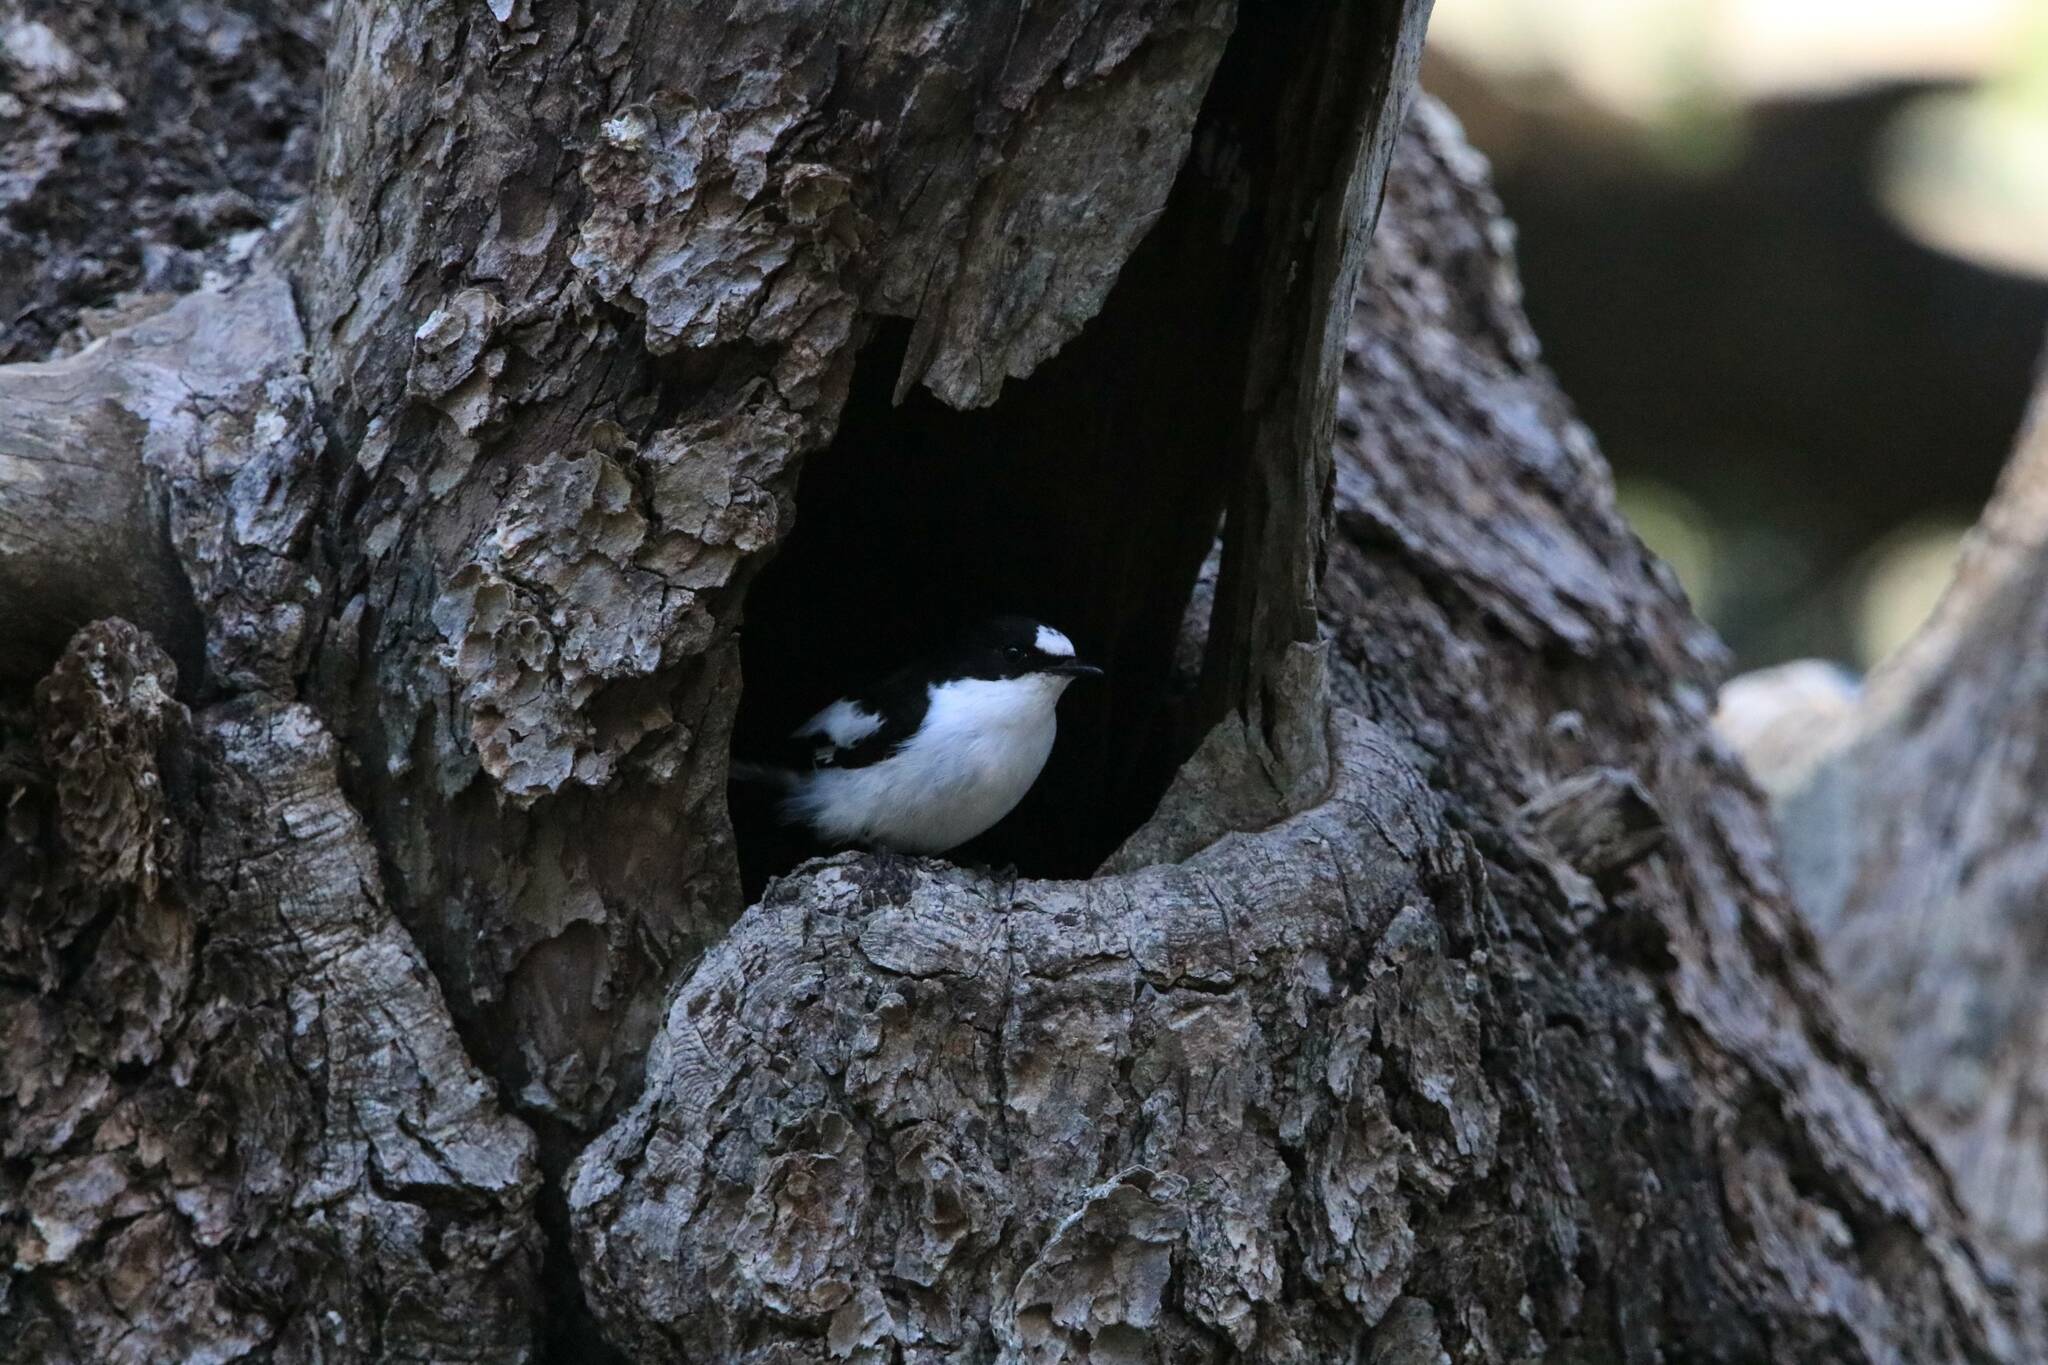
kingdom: Animalia
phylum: Chordata
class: Aves
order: Passeriformes
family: Muscicapidae
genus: Ficedula
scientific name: Ficedula speculigera
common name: Atlas pied flycatcher
